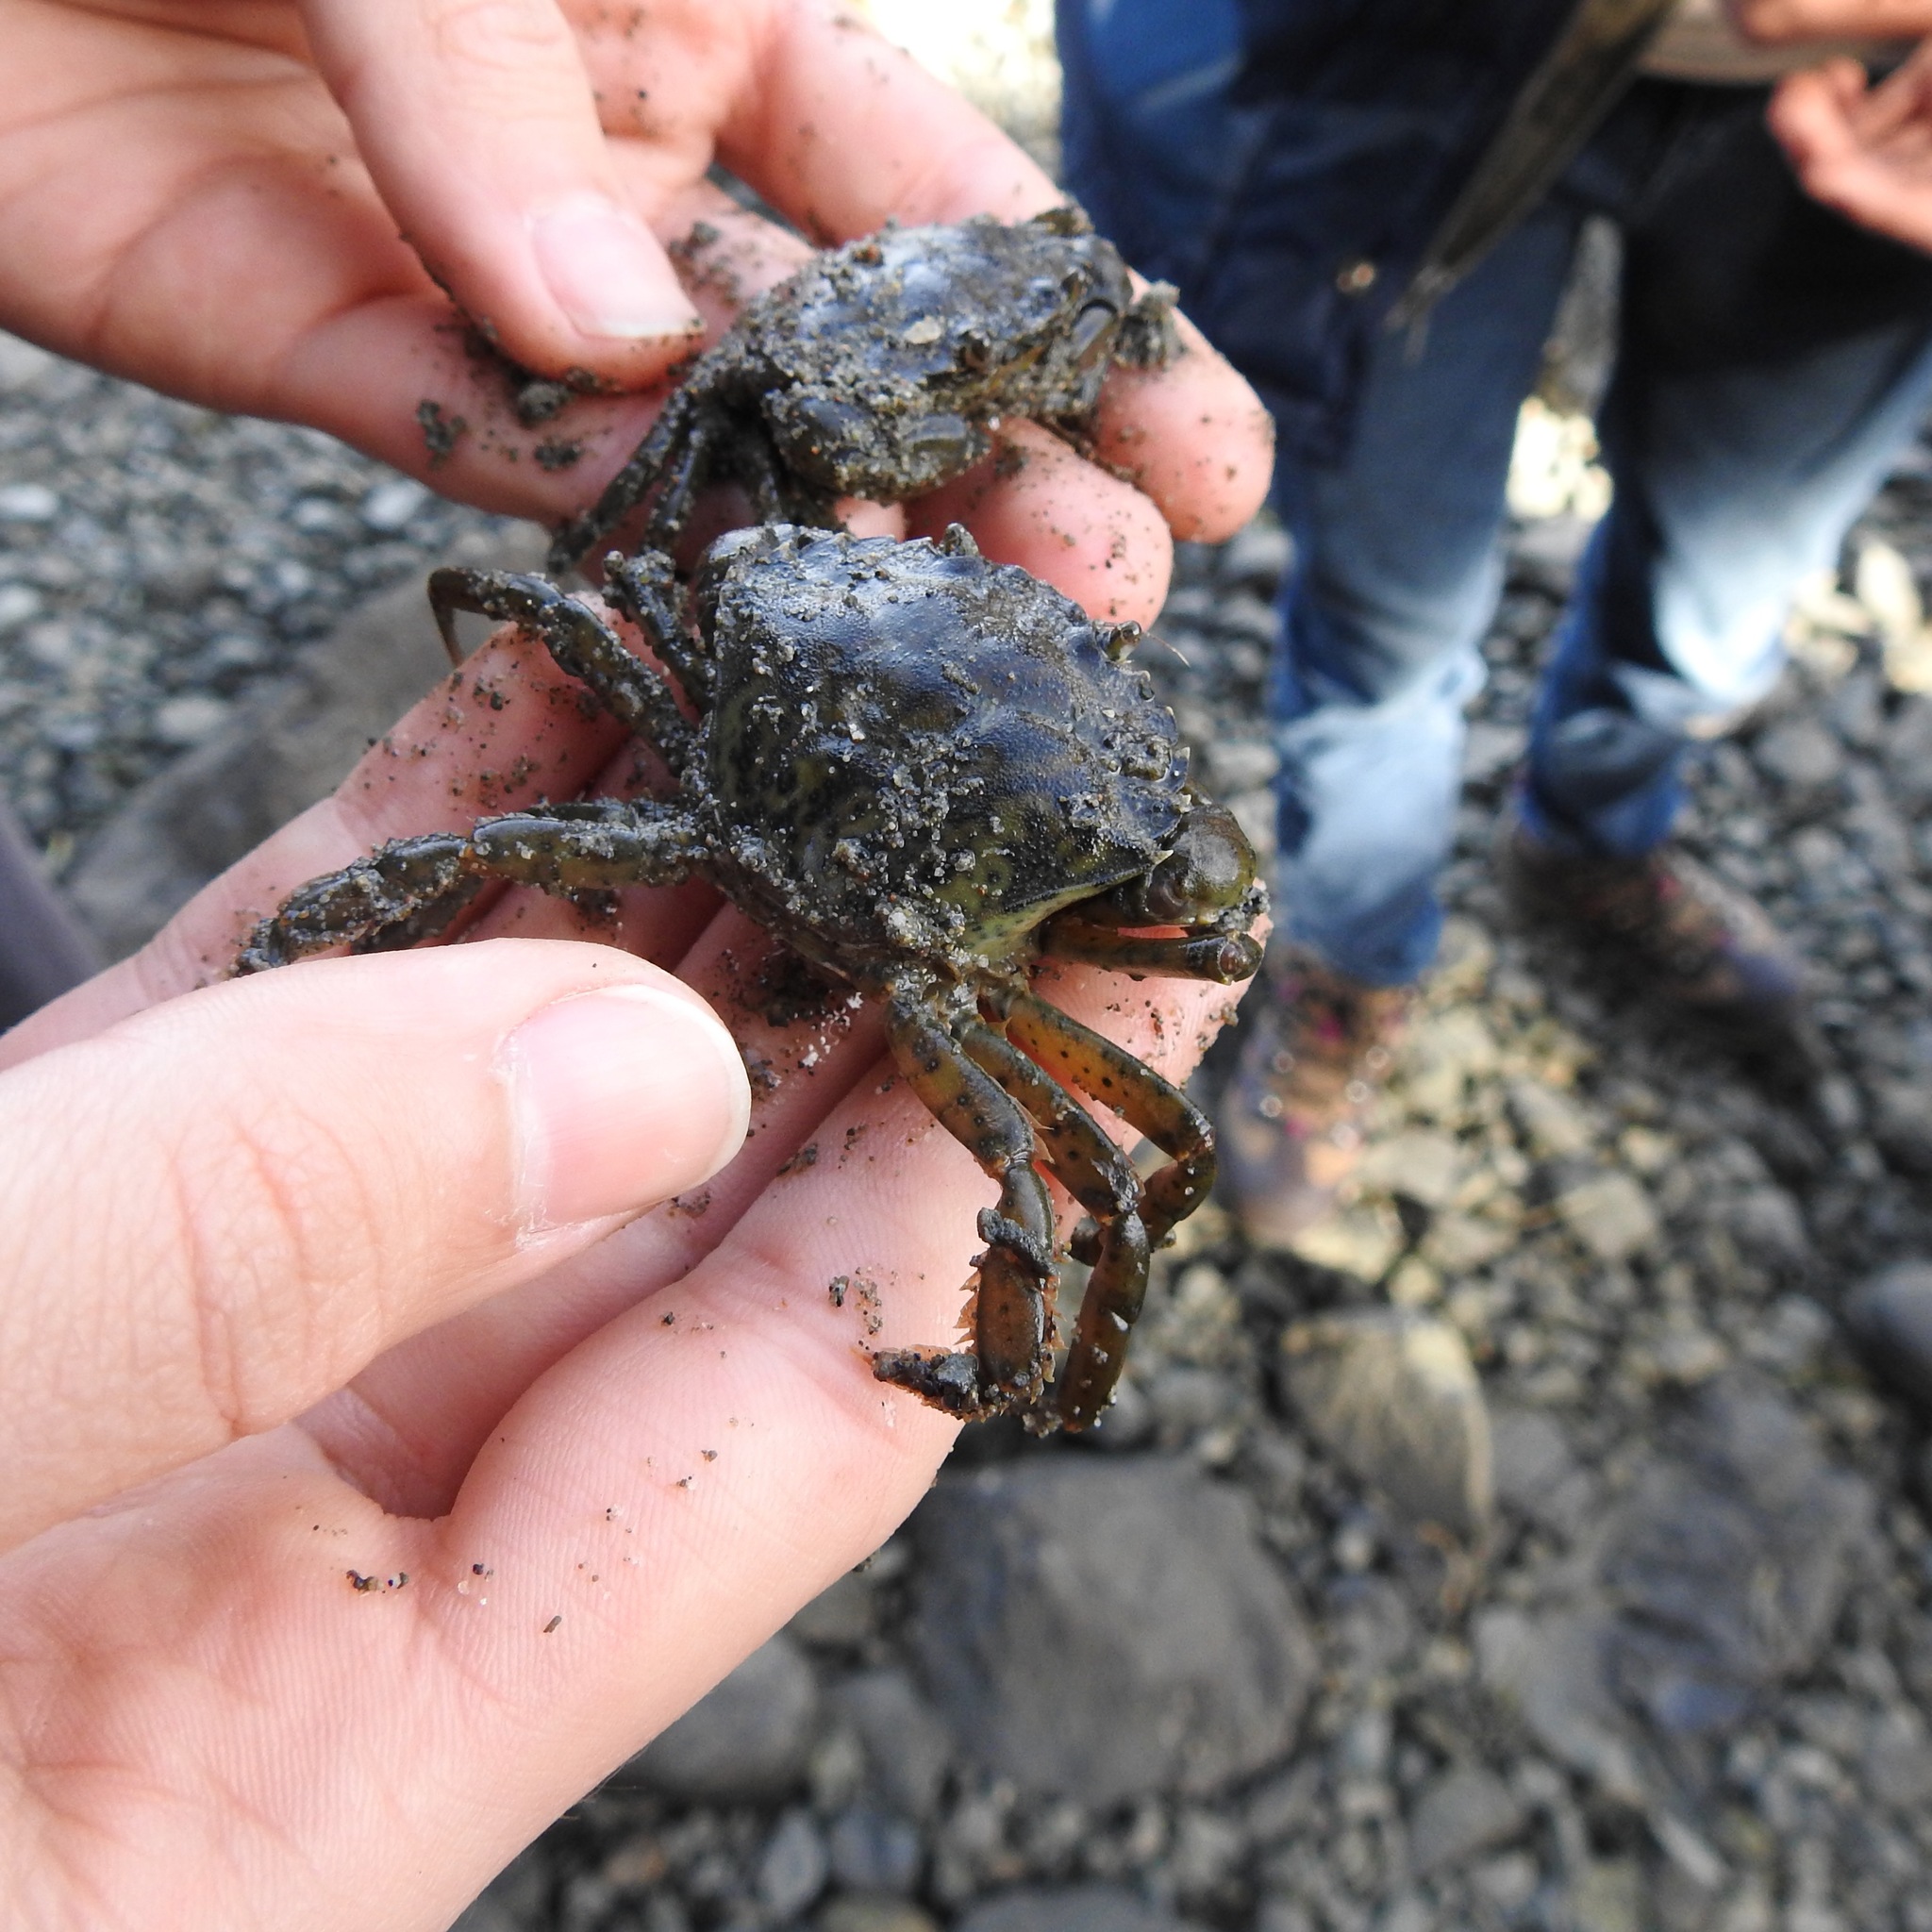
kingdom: Animalia
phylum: Arthropoda
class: Malacostraca
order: Decapoda
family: Carcinidae
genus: Carcinus
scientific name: Carcinus maenas
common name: European green crab
